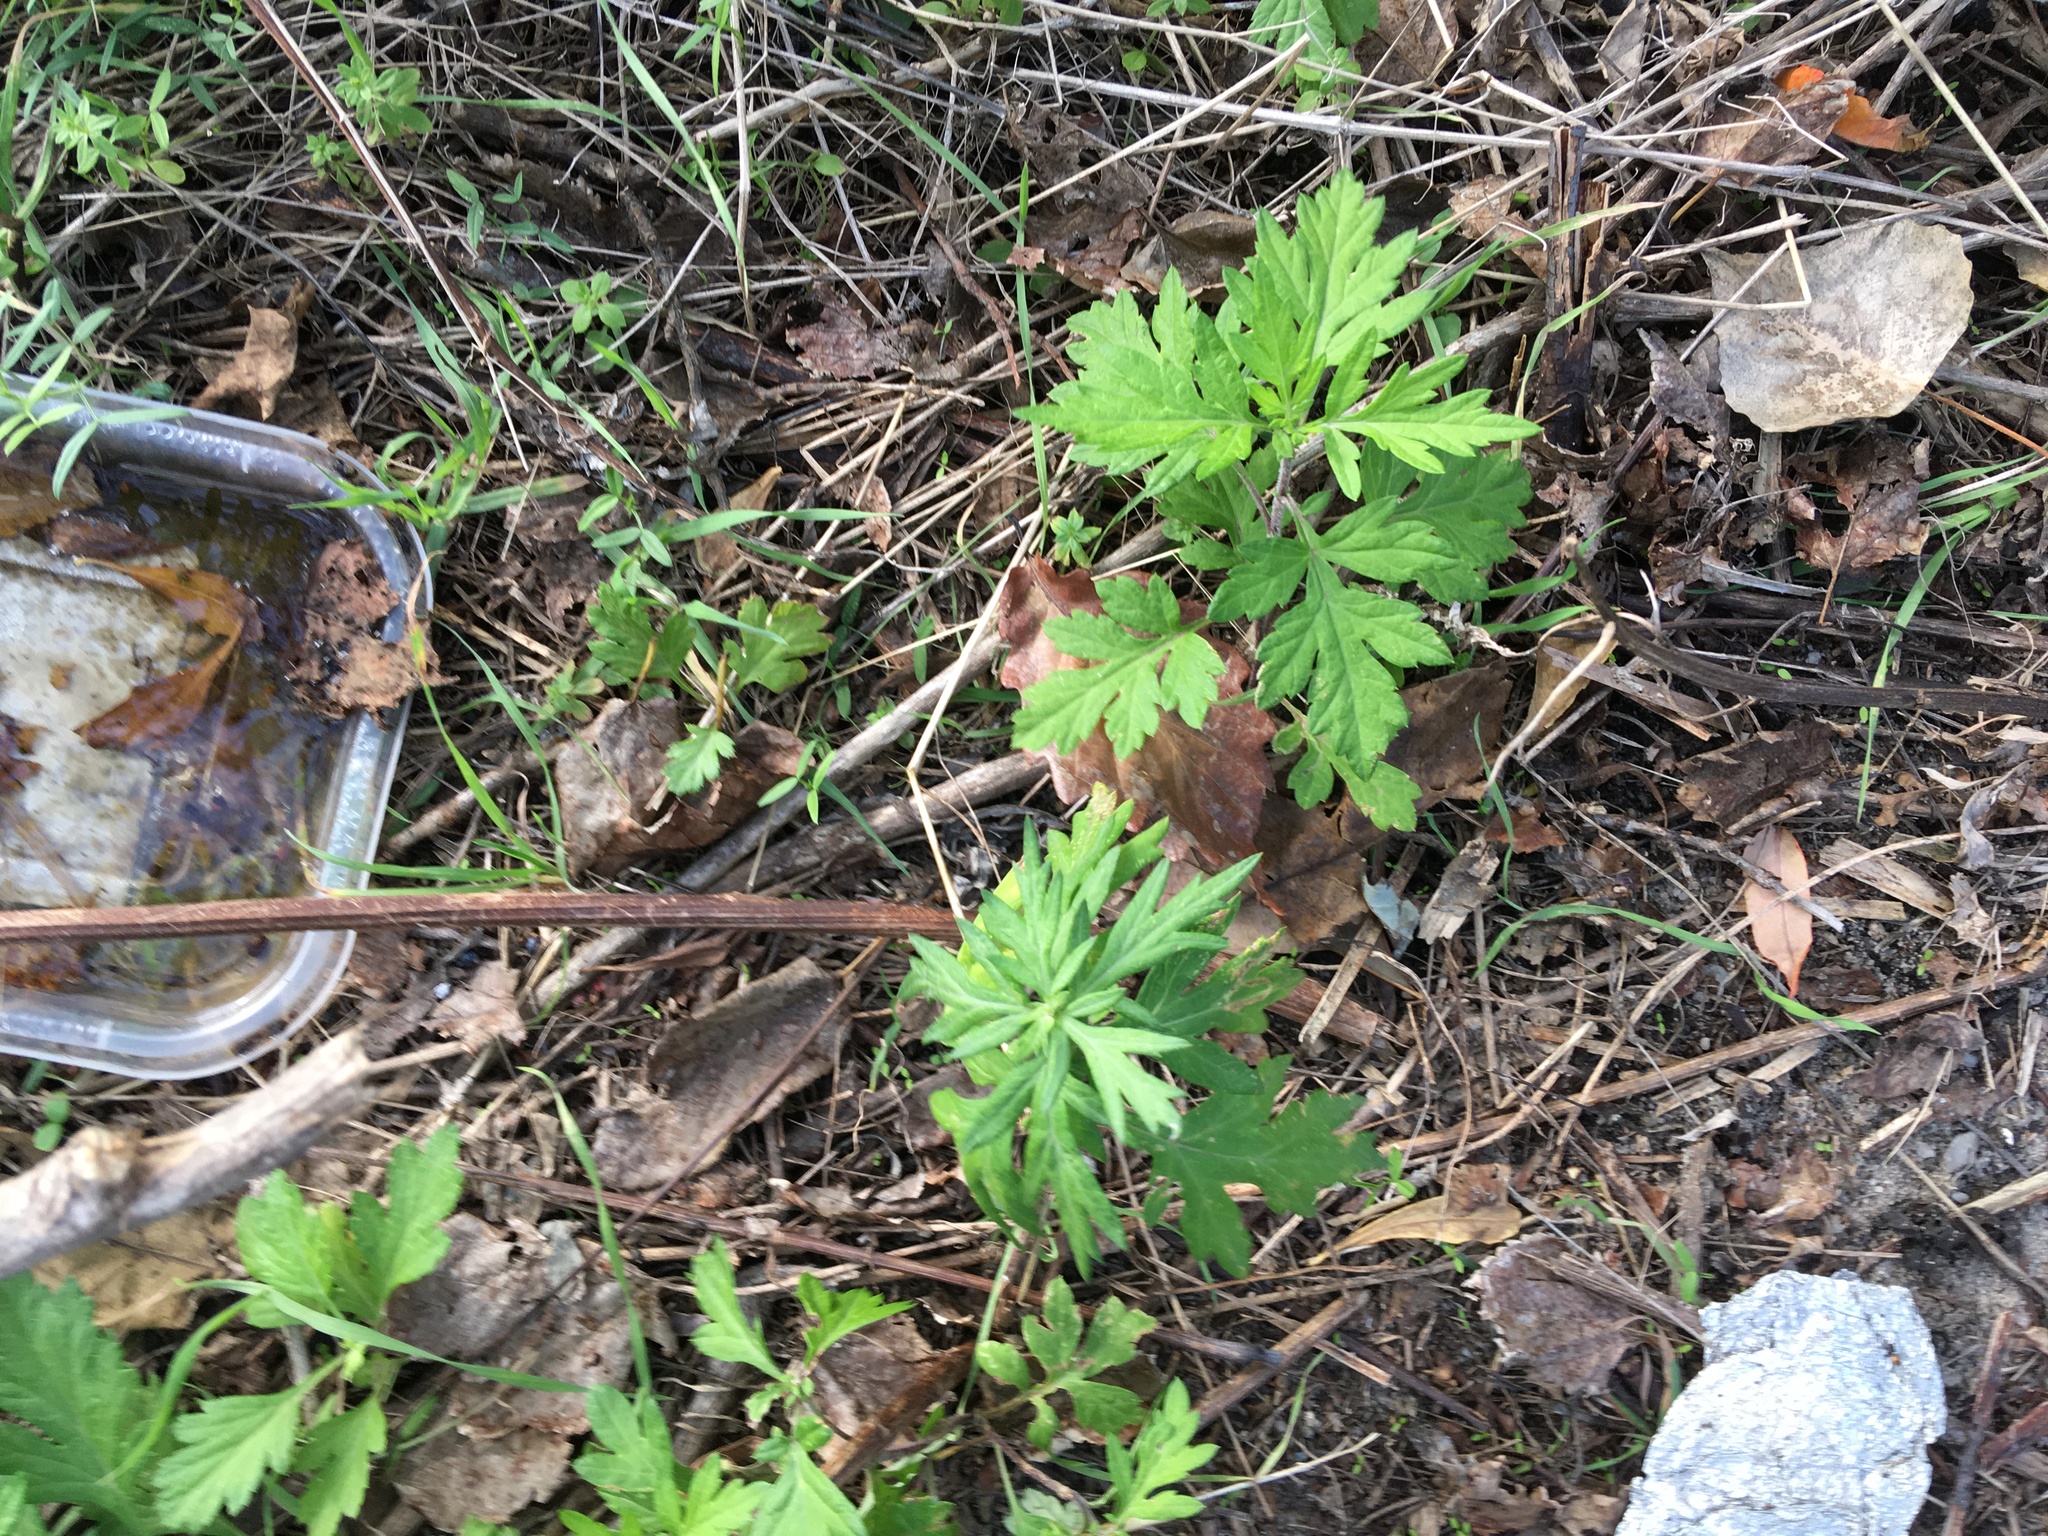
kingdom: Plantae
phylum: Tracheophyta
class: Magnoliopsida
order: Asterales
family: Asteraceae
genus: Artemisia
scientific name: Artemisia vulgaris
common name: Mugwort
